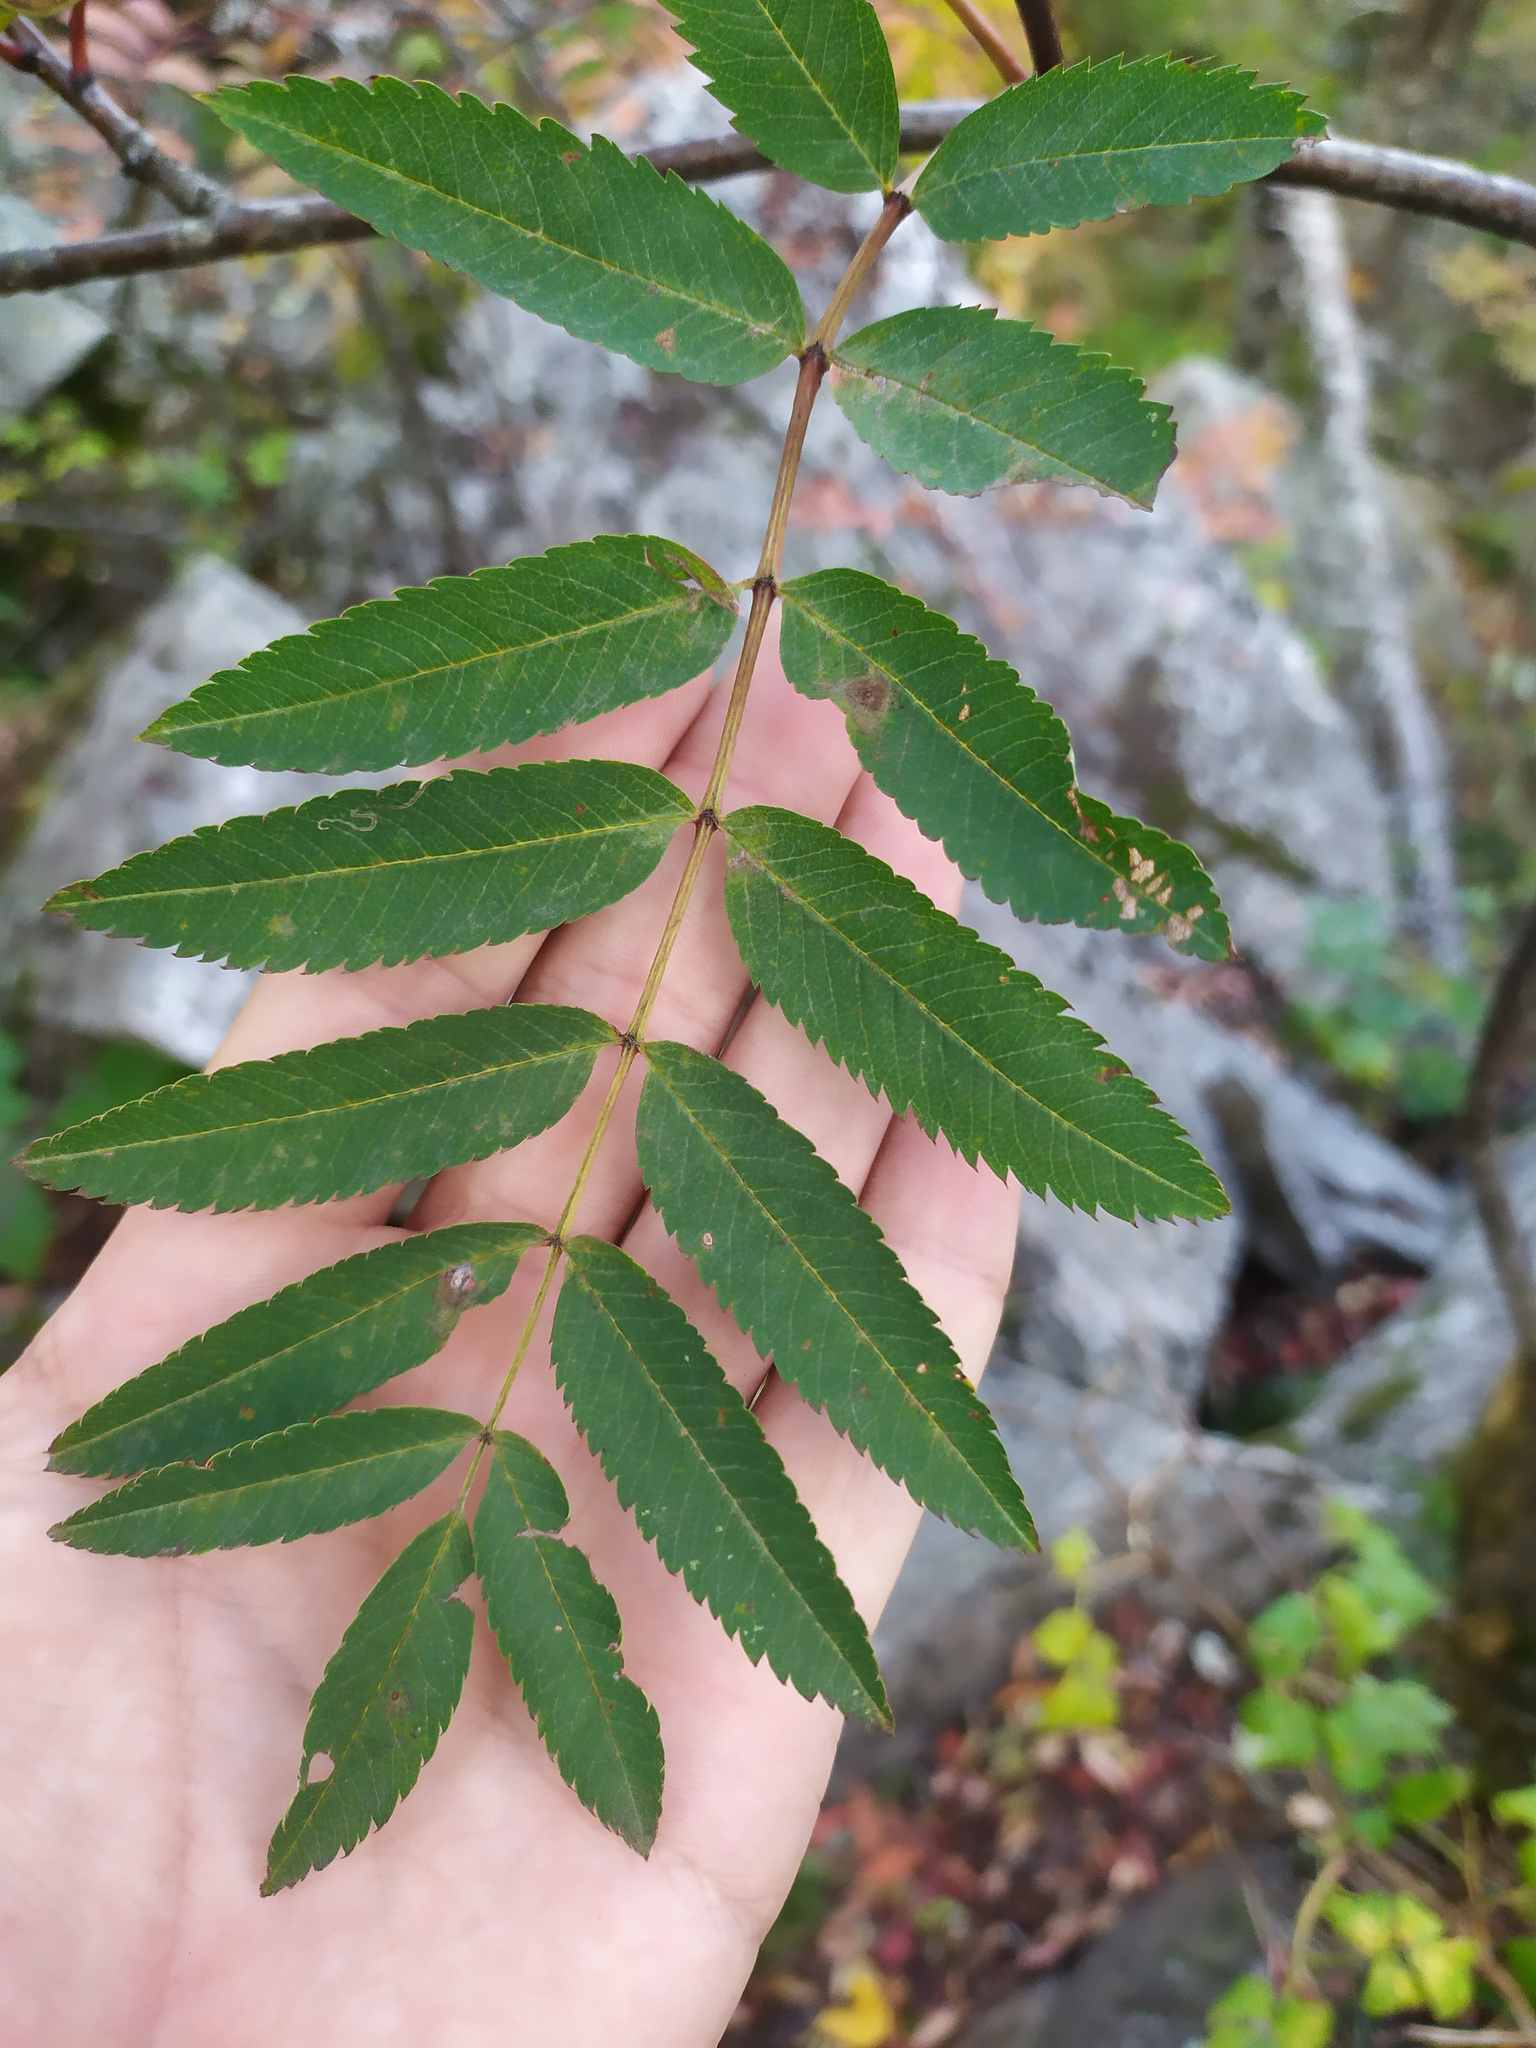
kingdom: Plantae
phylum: Tracheophyta
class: Magnoliopsida
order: Rosales
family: Rosaceae
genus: Sorbus
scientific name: Sorbus aucuparia
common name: Rowan
